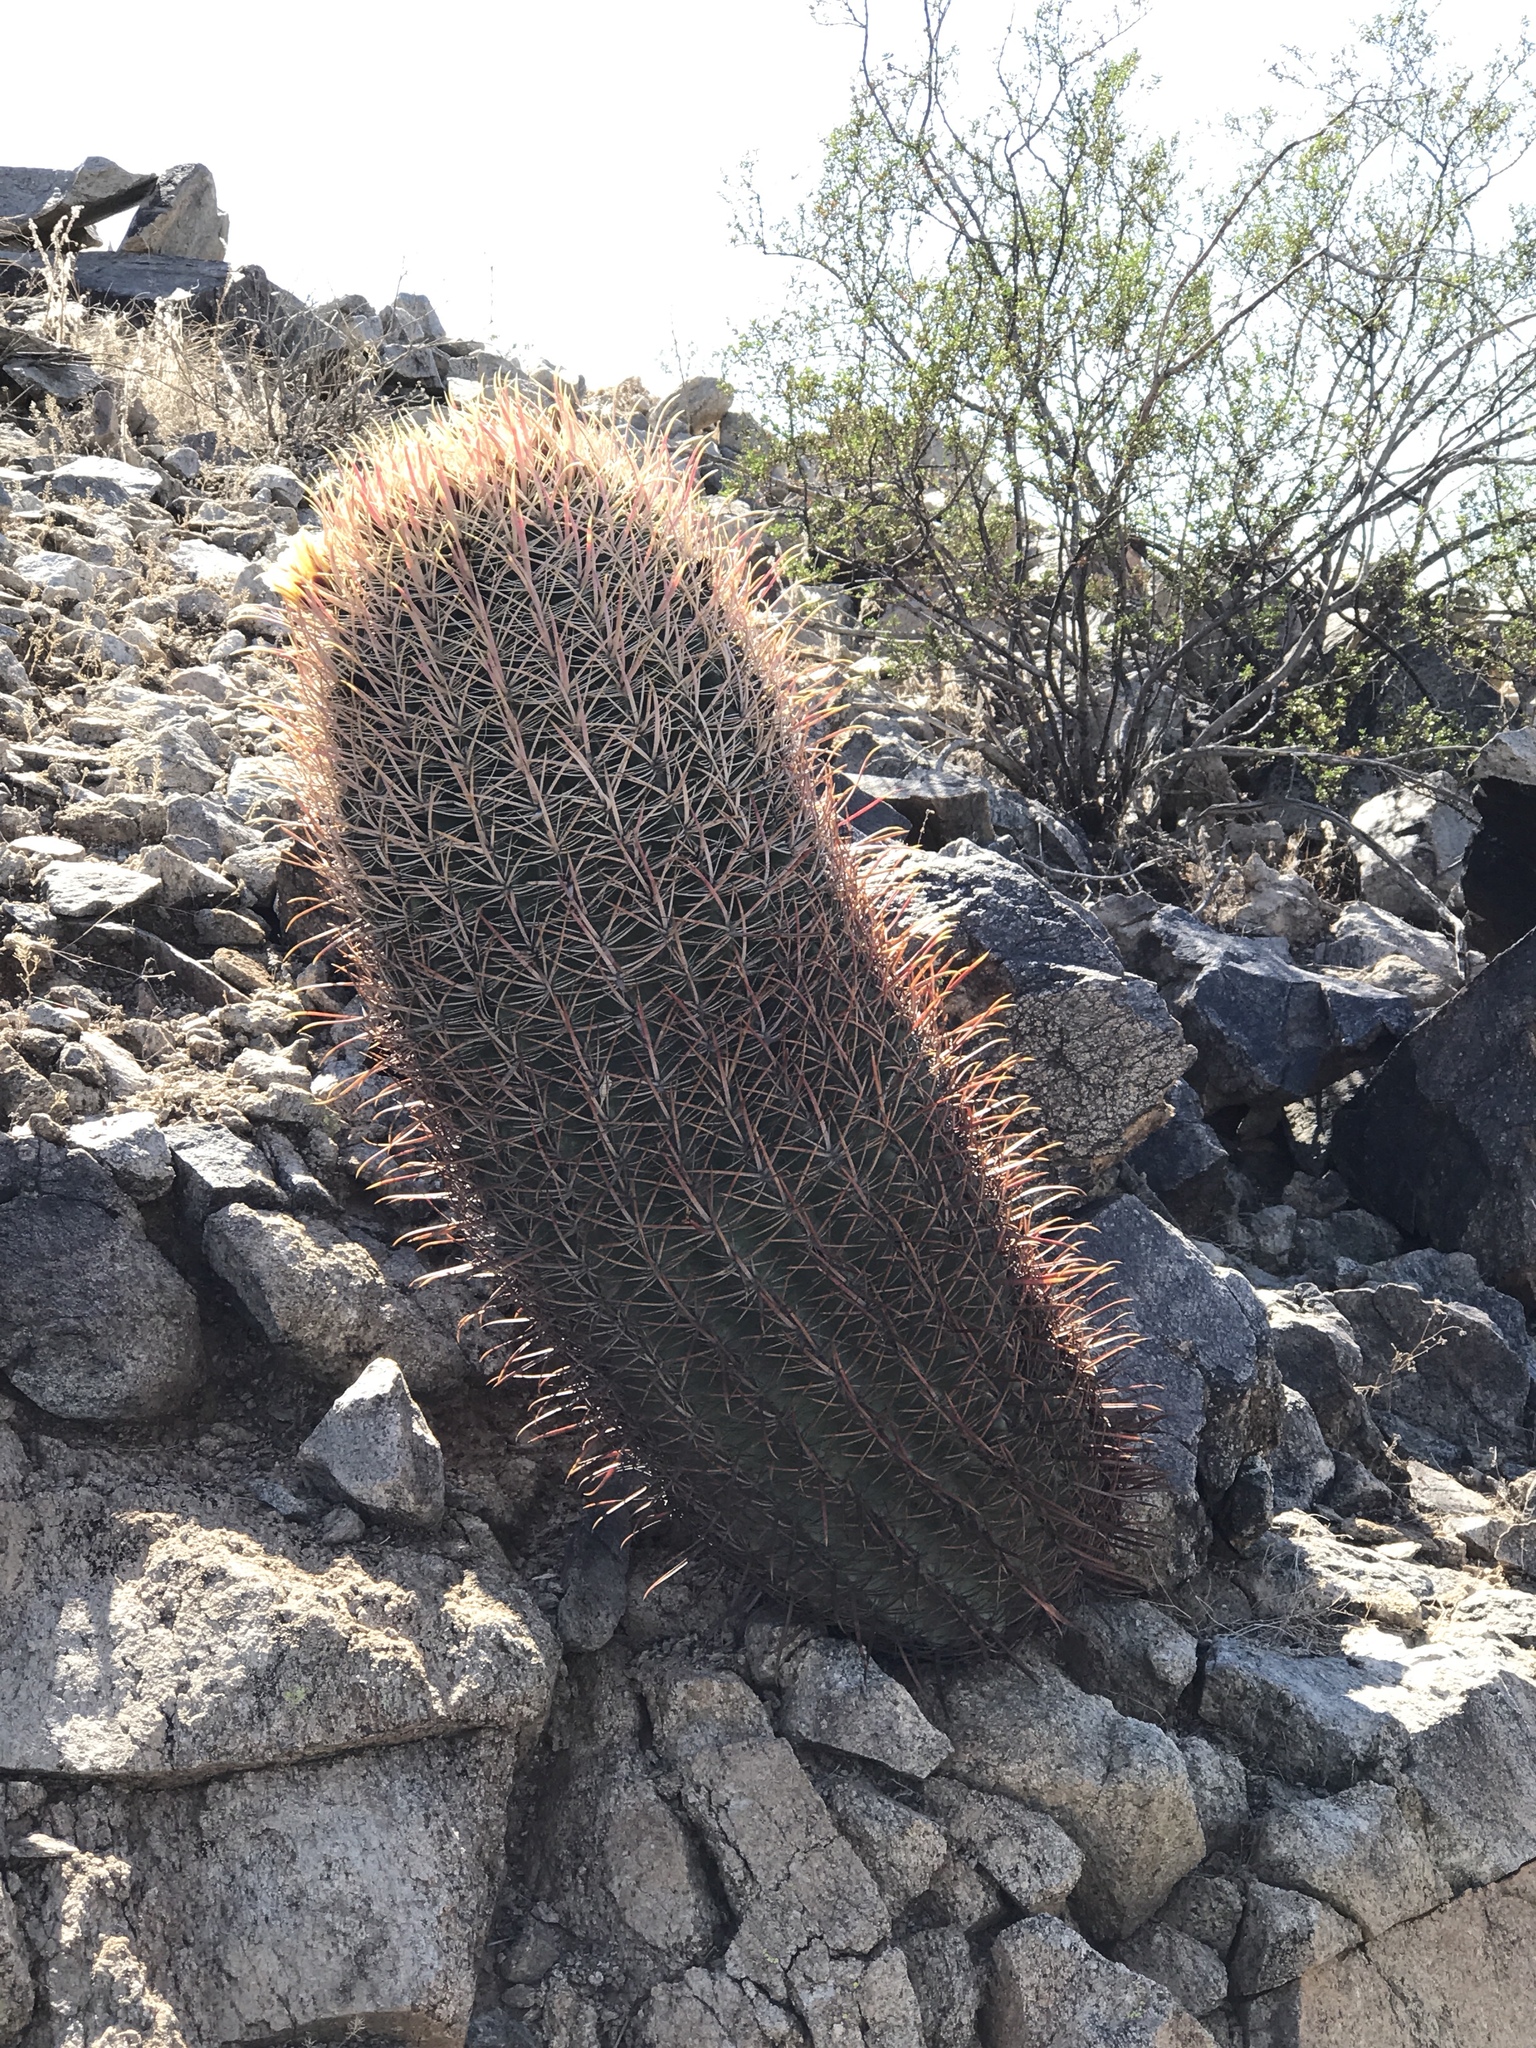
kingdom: Plantae
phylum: Tracheophyta
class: Magnoliopsida
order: Caryophyllales
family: Cactaceae
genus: Ferocactus
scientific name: Ferocactus cylindraceus
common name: California barrel cactus
